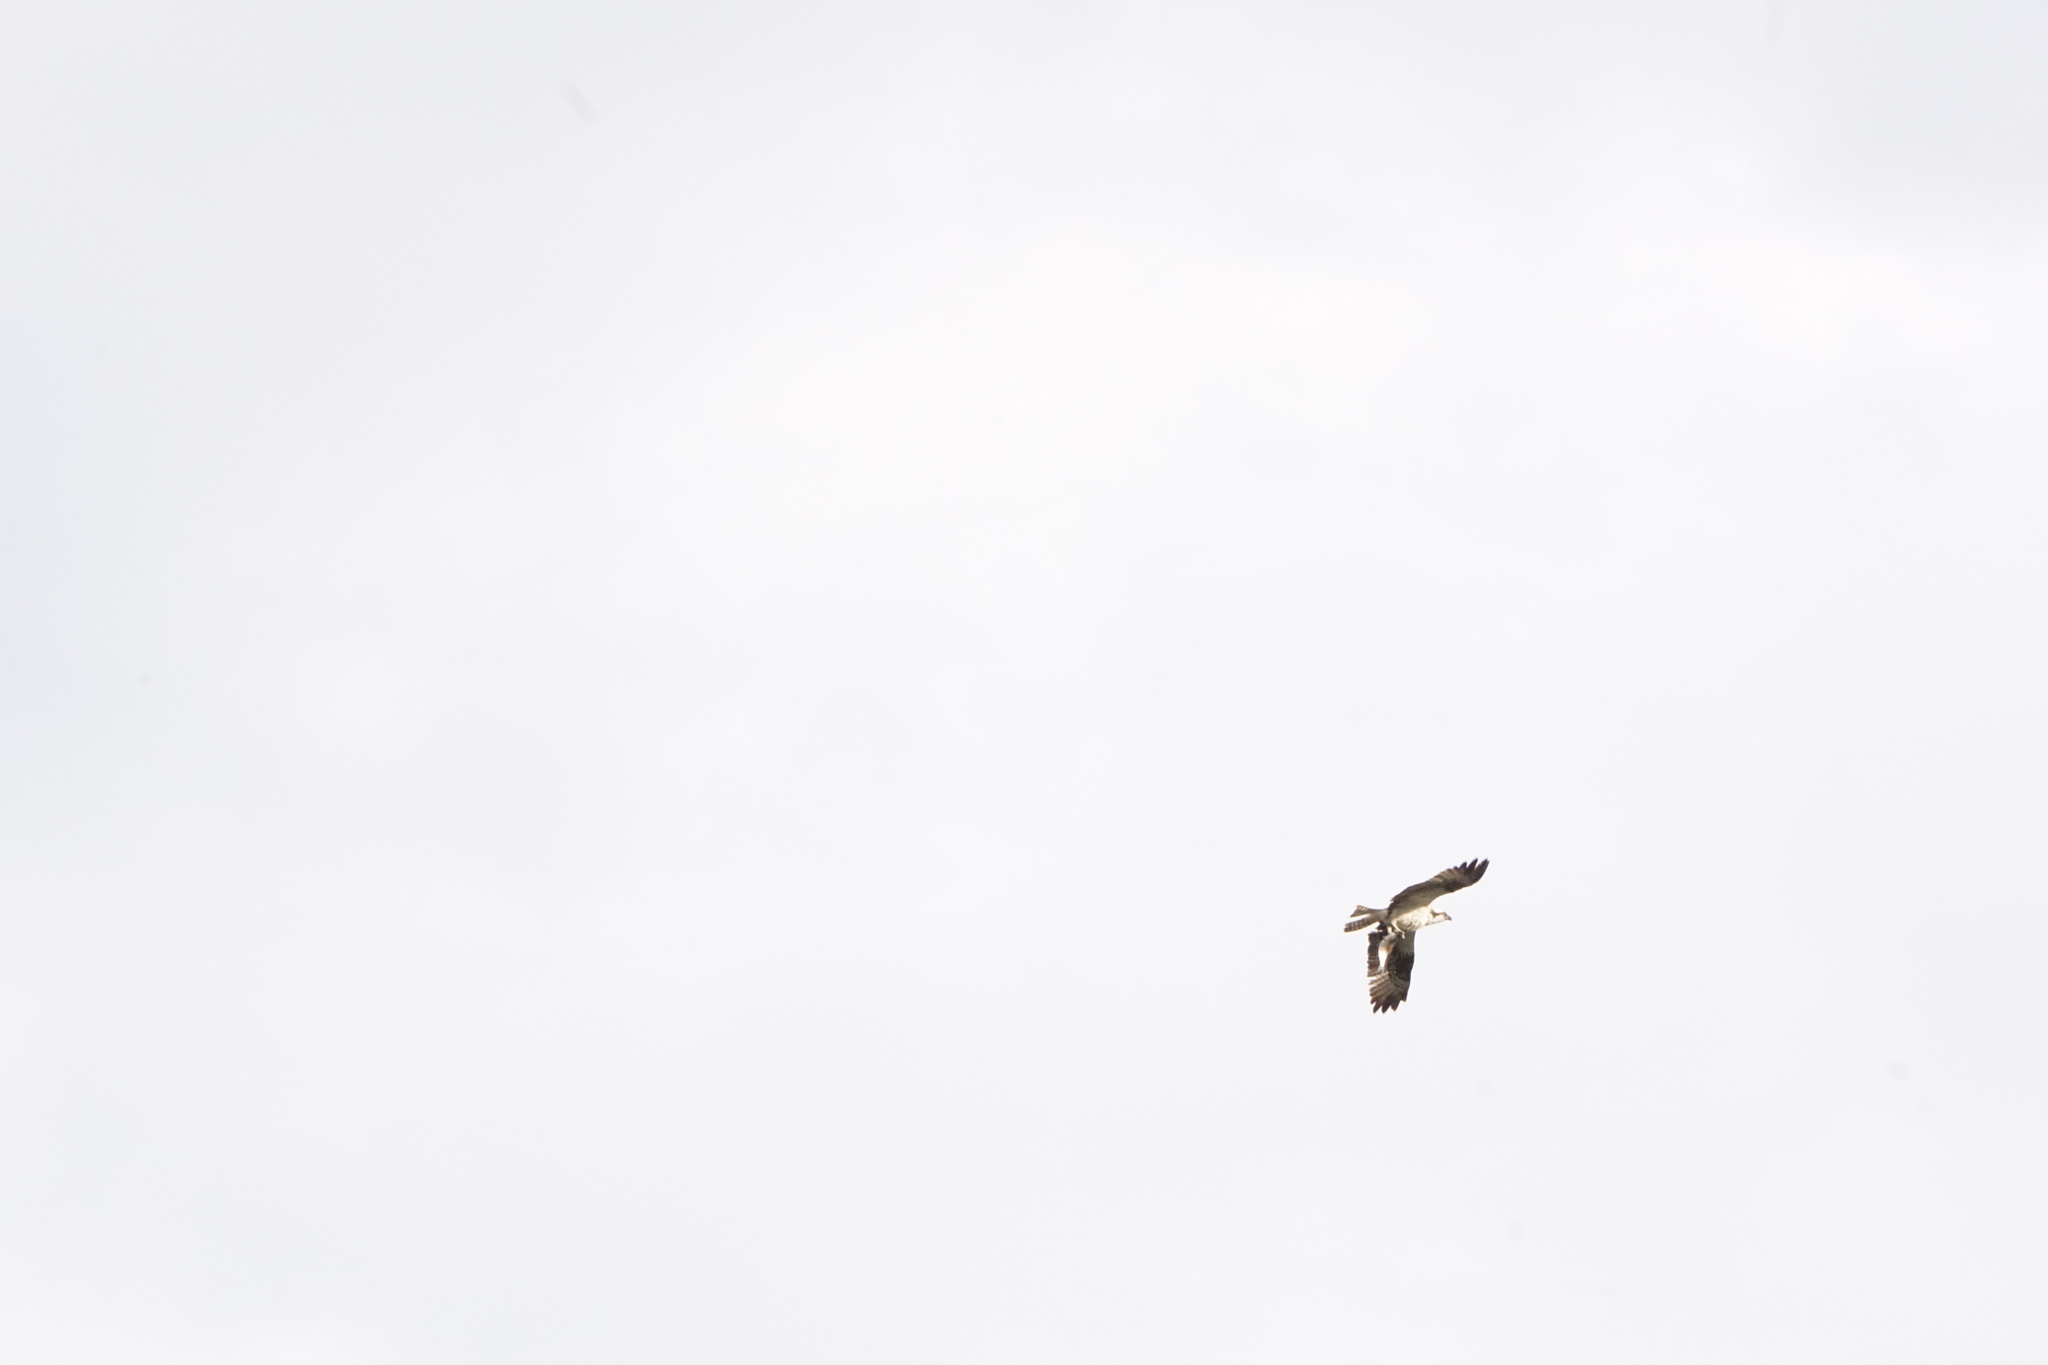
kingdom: Animalia
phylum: Chordata
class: Aves
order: Accipitriformes
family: Pandionidae
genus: Pandion
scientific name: Pandion haliaetus
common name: Osprey
